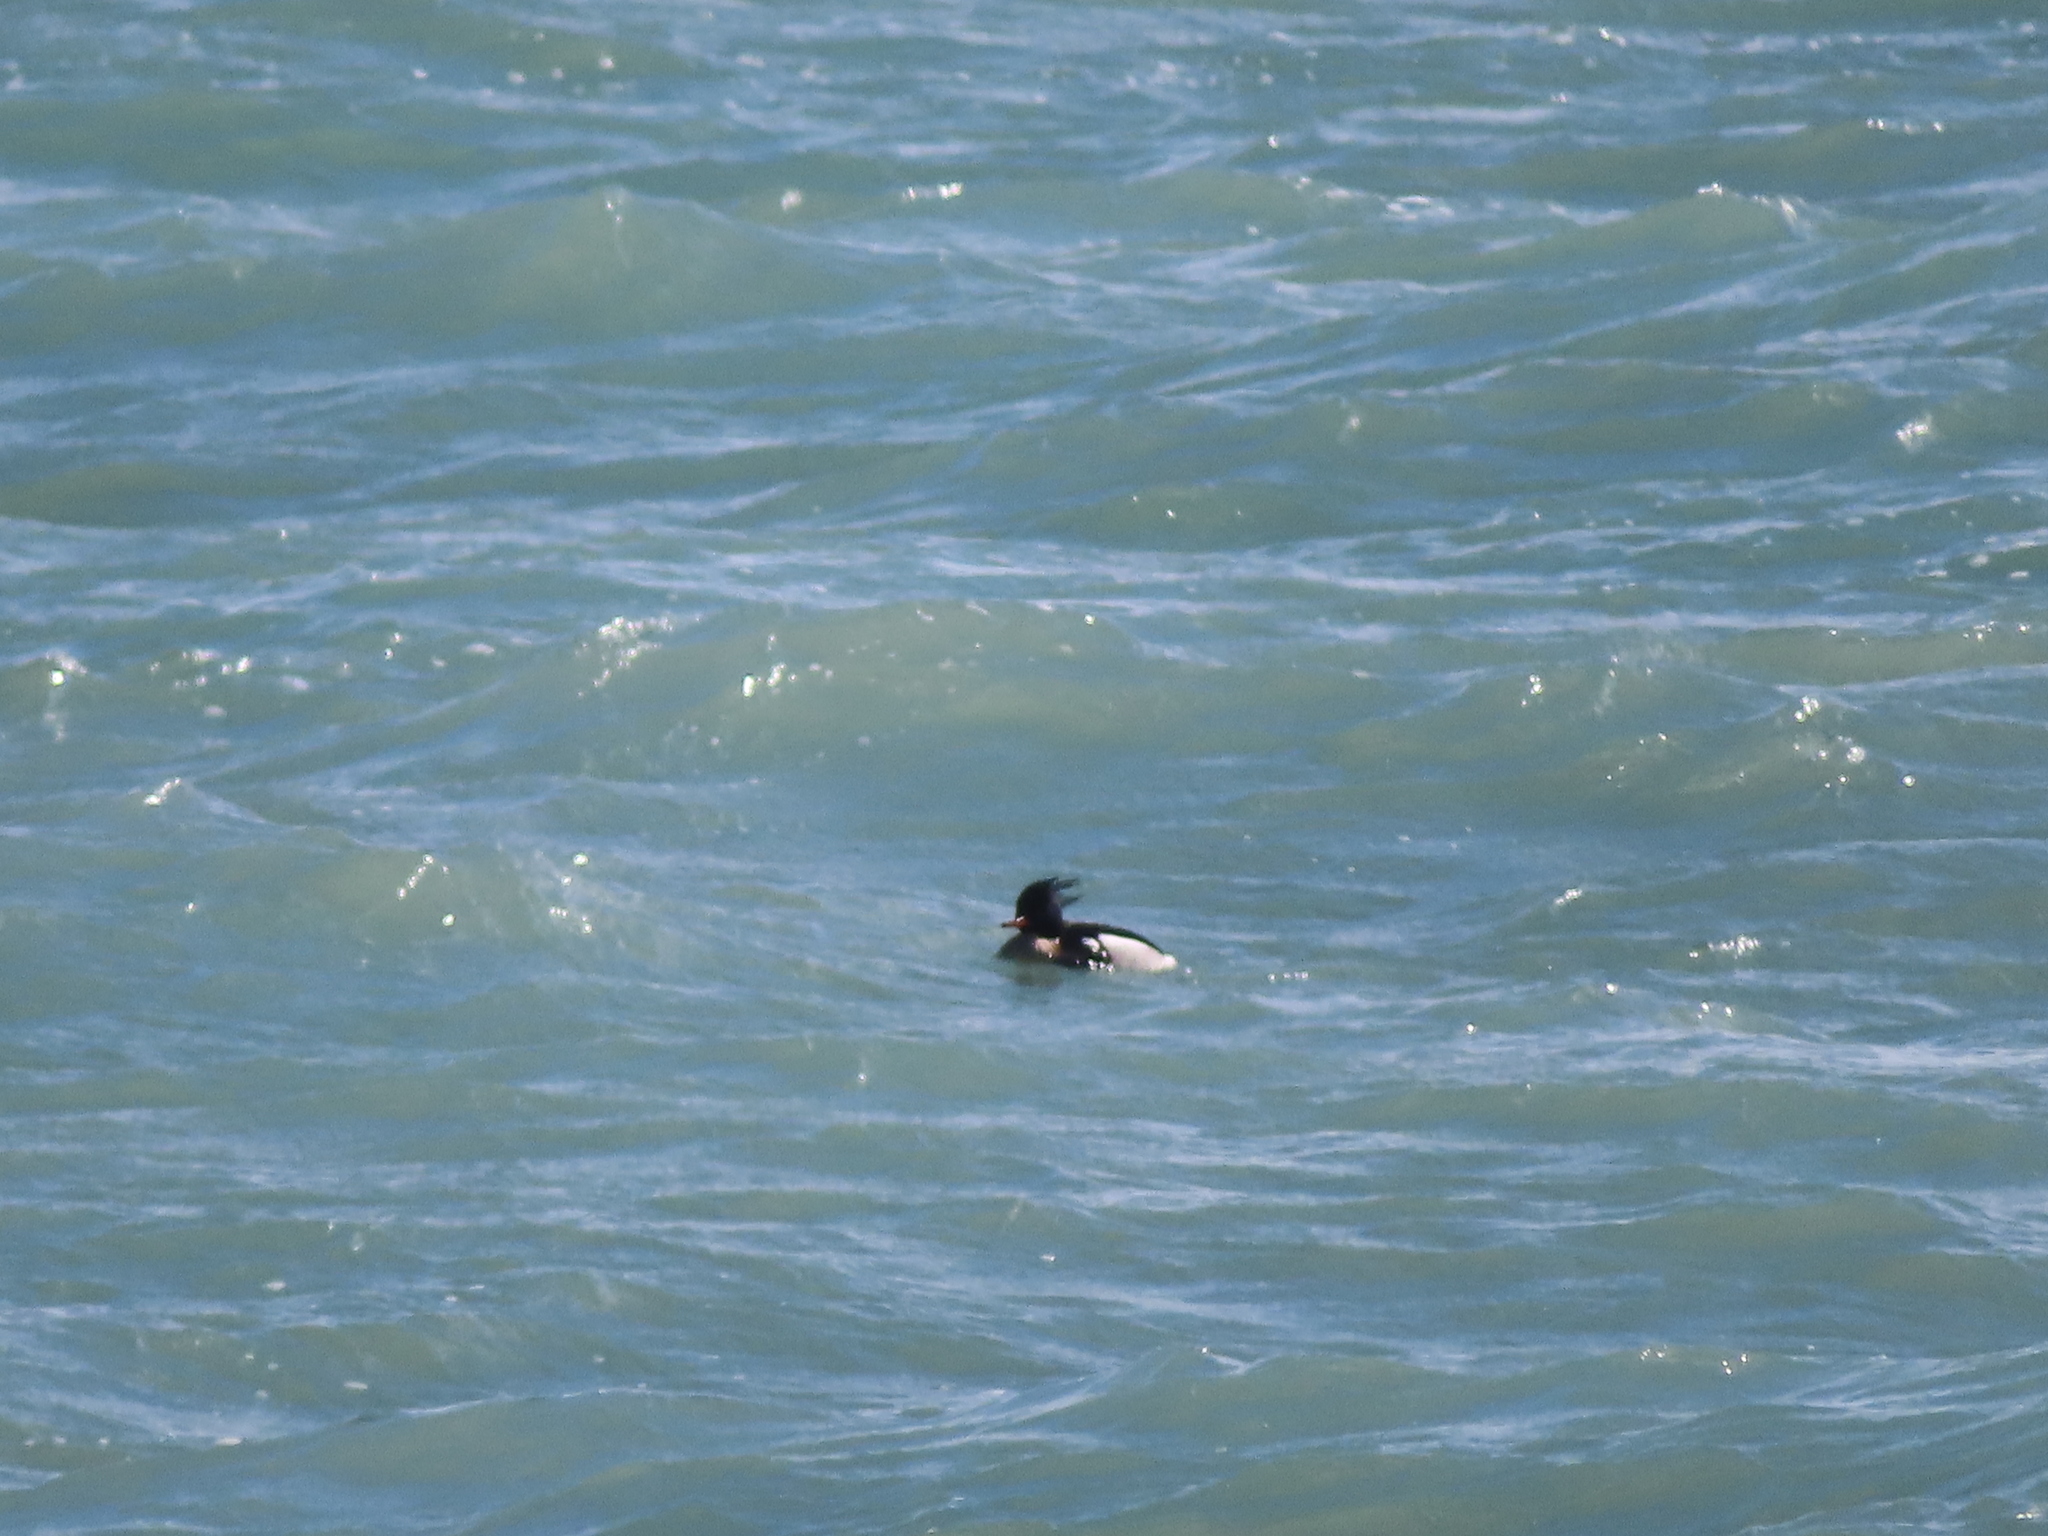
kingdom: Animalia
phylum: Chordata
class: Aves
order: Anseriformes
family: Anatidae
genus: Mergus
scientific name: Mergus serrator
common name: Red-breasted merganser
